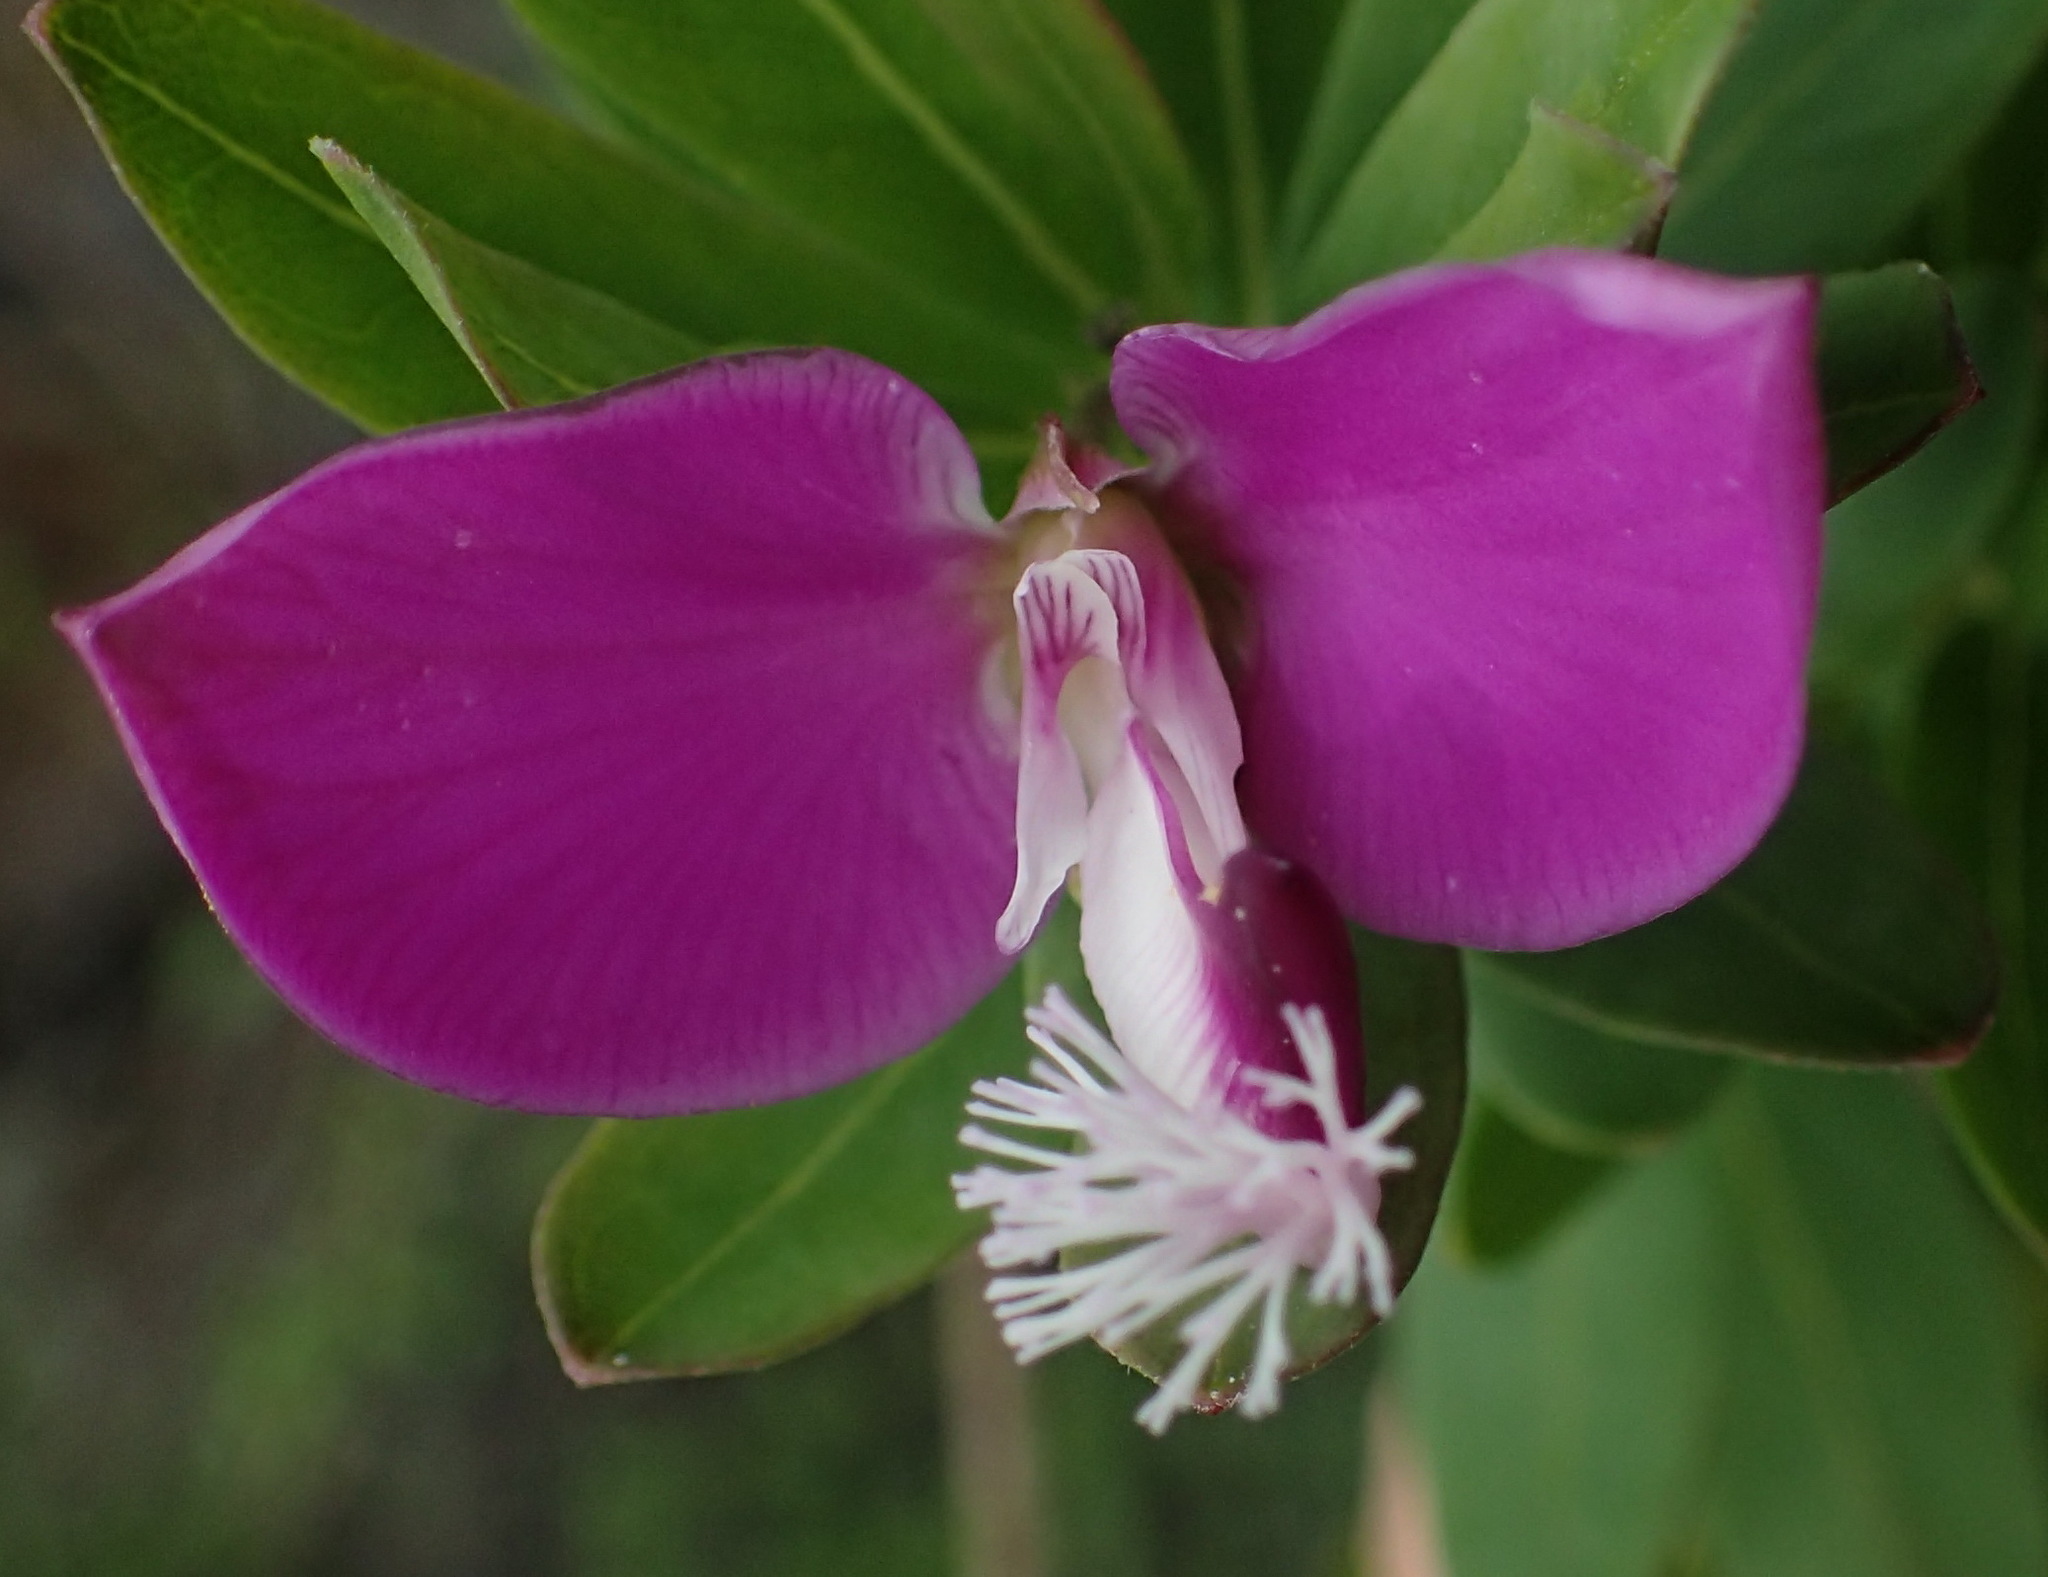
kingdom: Plantae
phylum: Tracheophyta
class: Magnoliopsida
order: Fabales
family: Polygalaceae
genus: Polygala
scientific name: Polygala myrtifolia
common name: Myrtle-leaf milkwort
